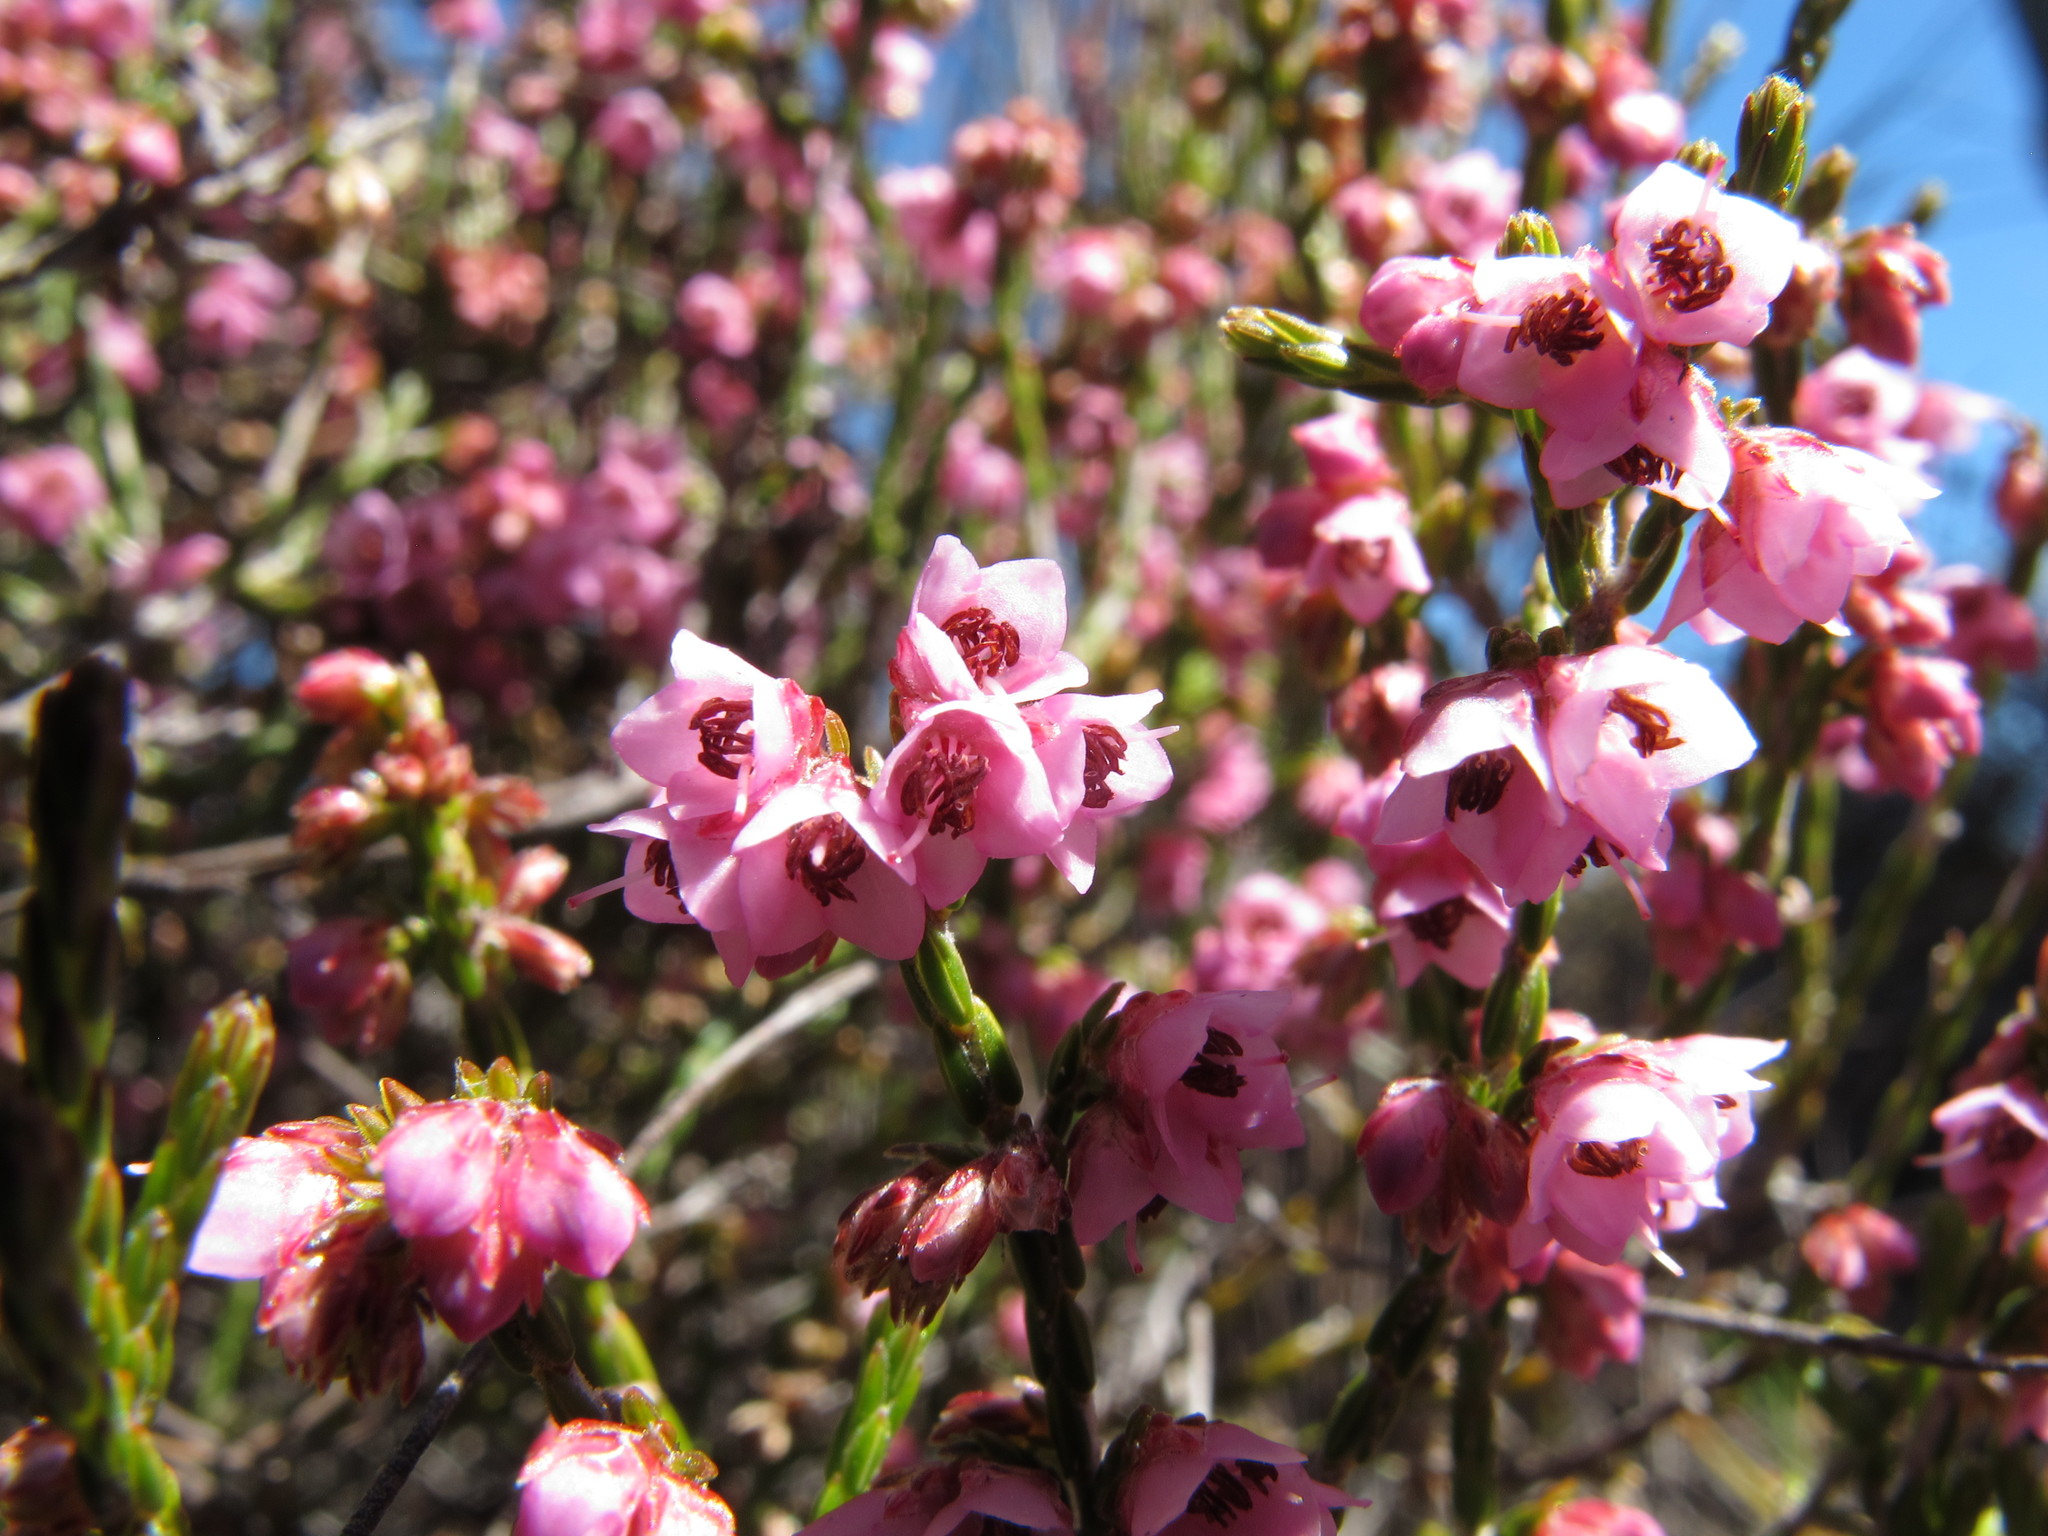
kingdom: Plantae
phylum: Tracheophyta
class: Magnoliopsida
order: Ericales
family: Ericaceae
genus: Erica
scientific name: Erica argentea
